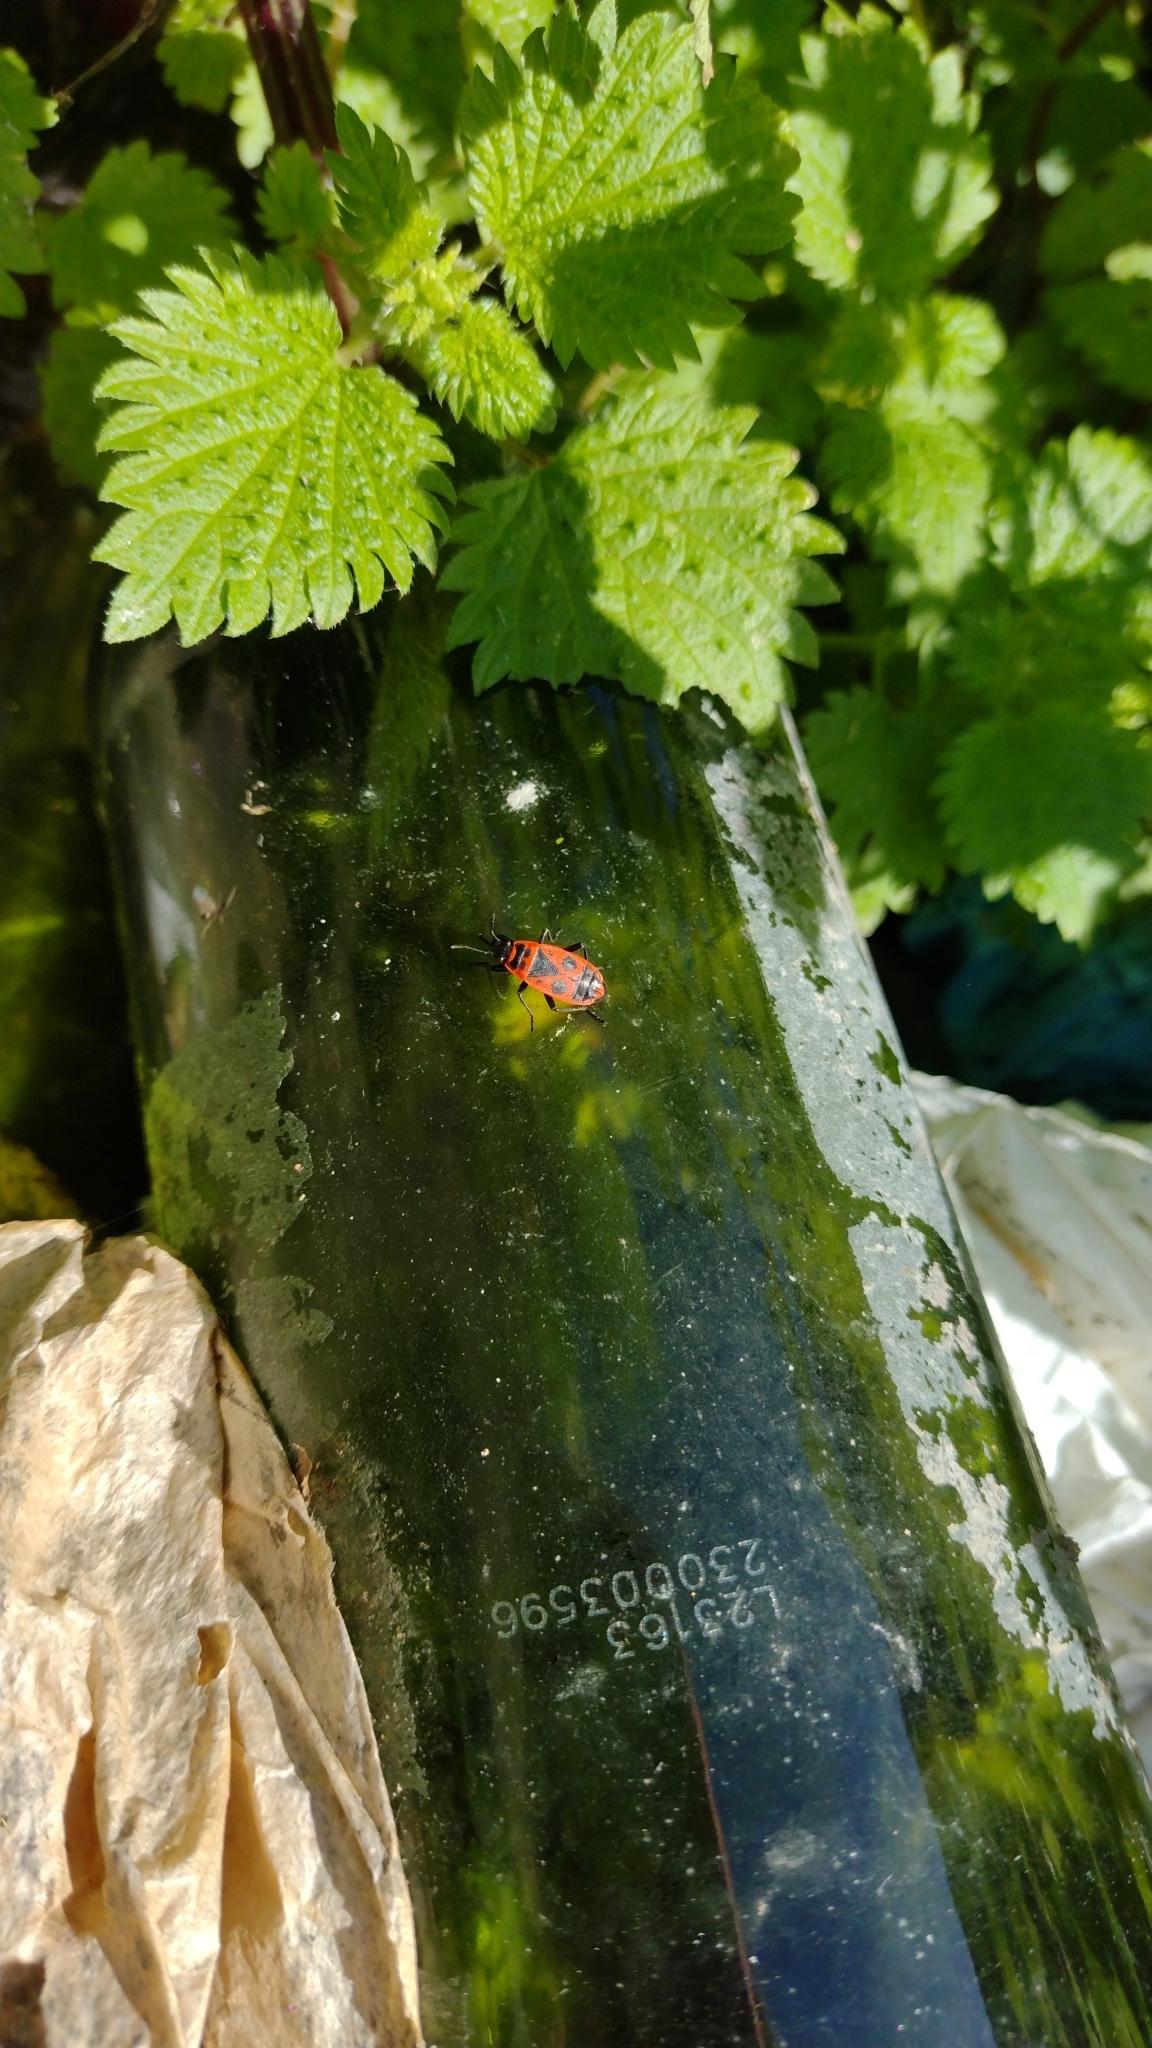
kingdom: Animalia
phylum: Arthropoda
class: Insecta
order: Hemiptera
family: Pyrrhocoridae
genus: Pyrrhocoris
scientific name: Pyrrhocoris apterus
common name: Firebug
